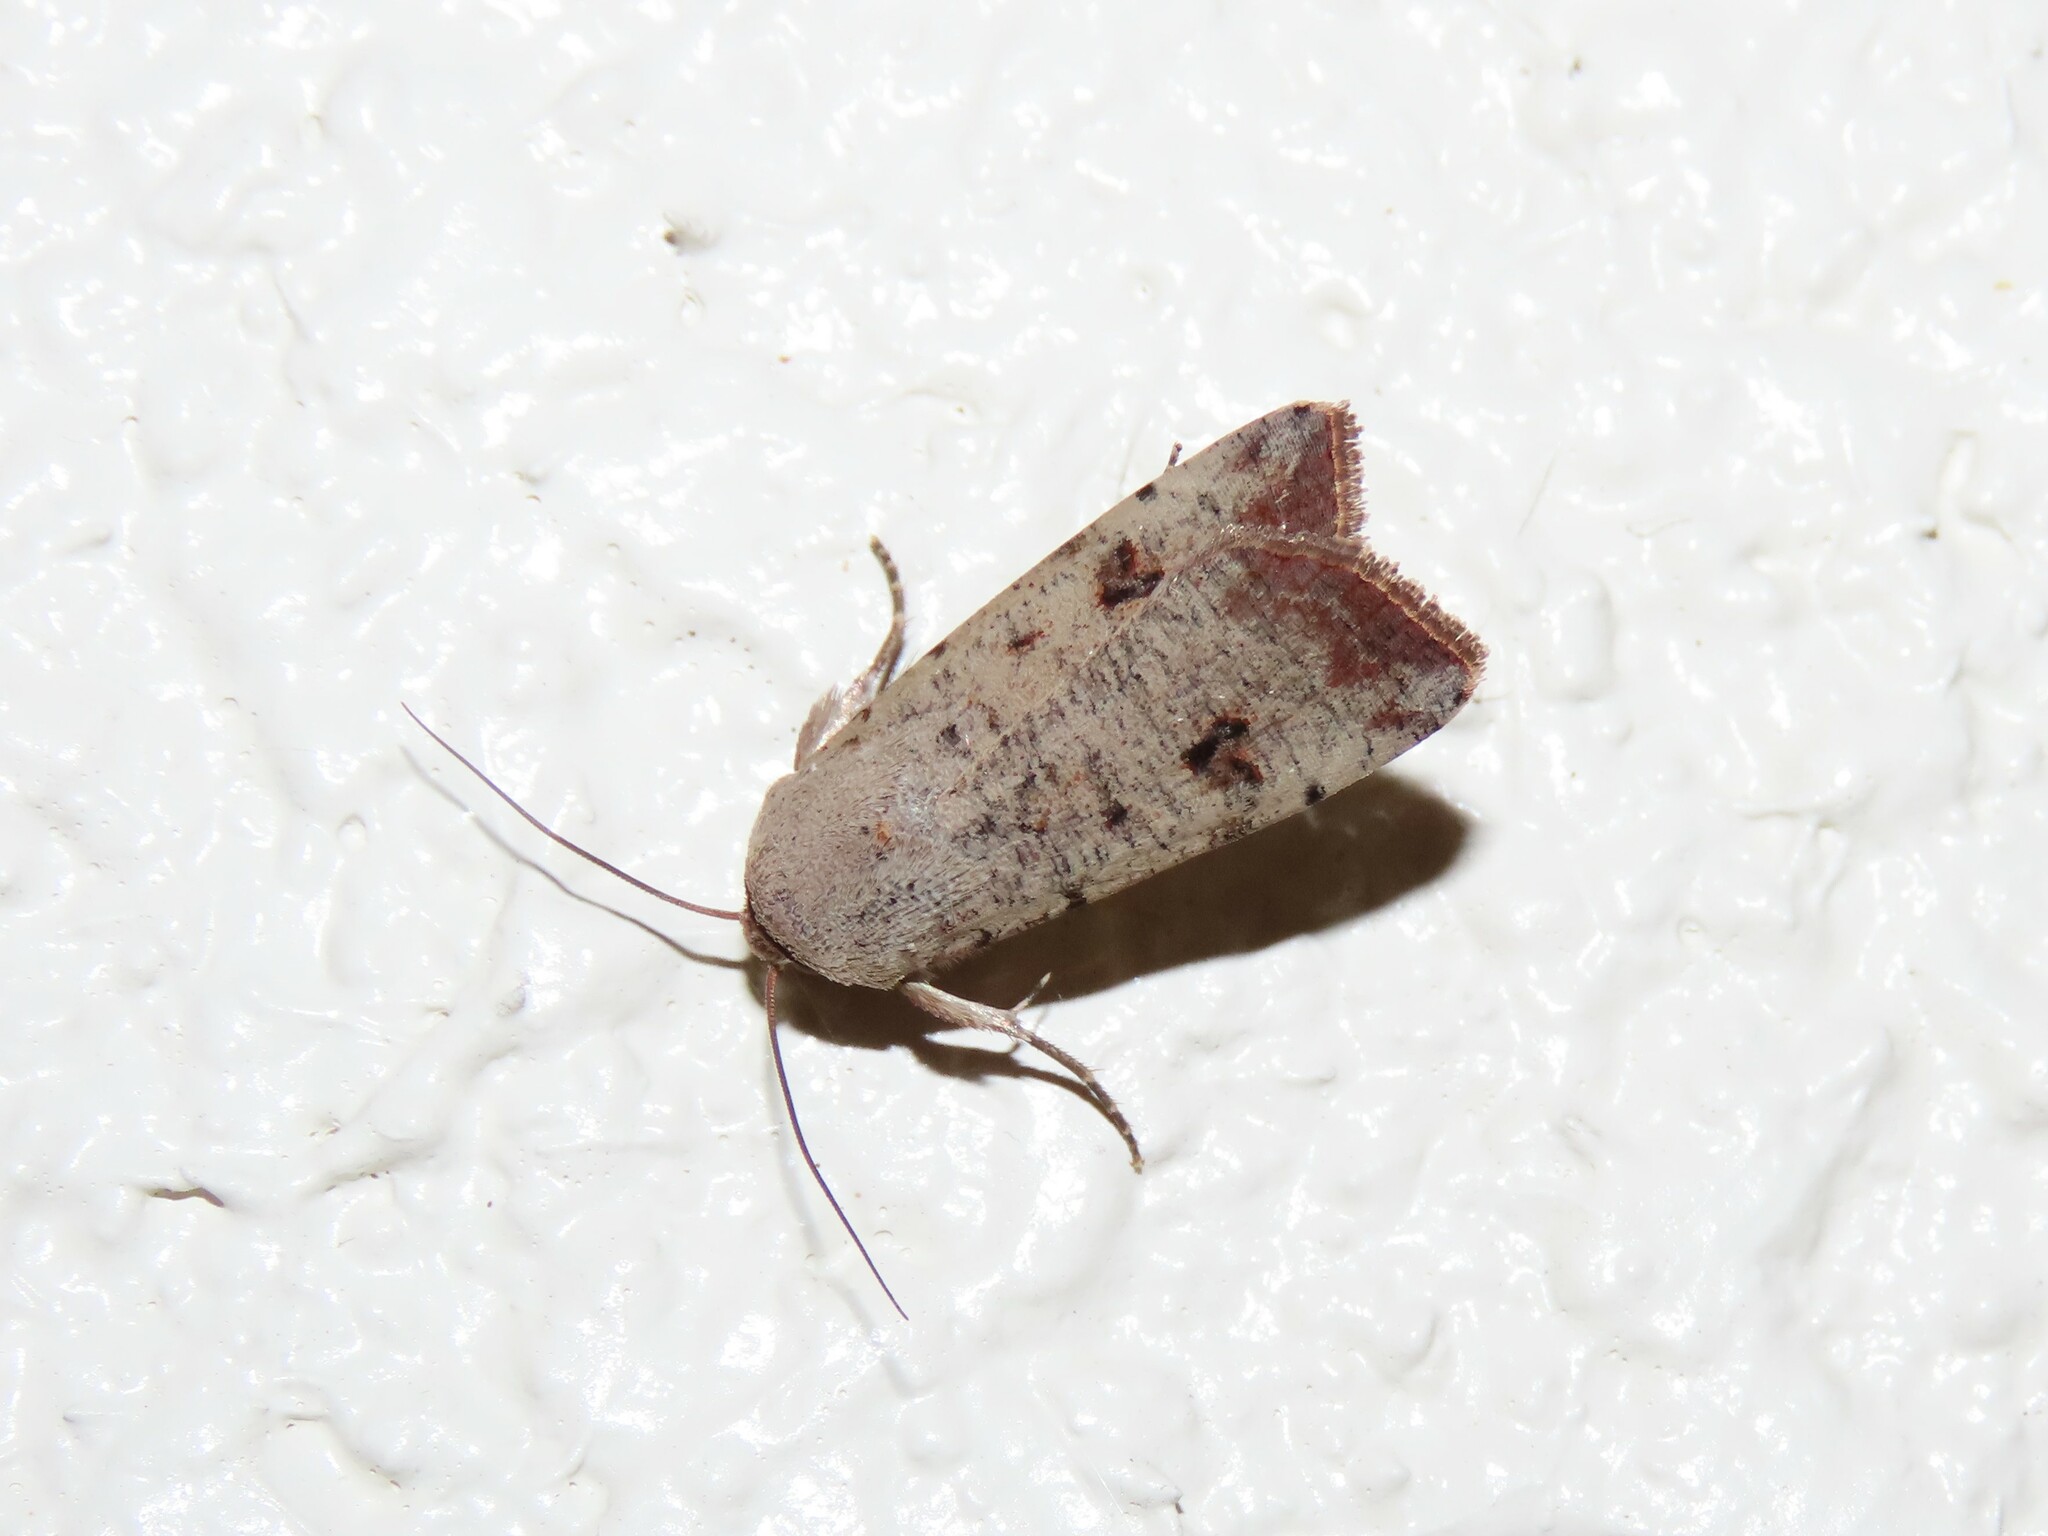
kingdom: Animalia
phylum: Arthropoda
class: Insecta
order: Lepidoptera
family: Noctuidae
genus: Anicla
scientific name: Anicla infecta
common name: Green cutworm
